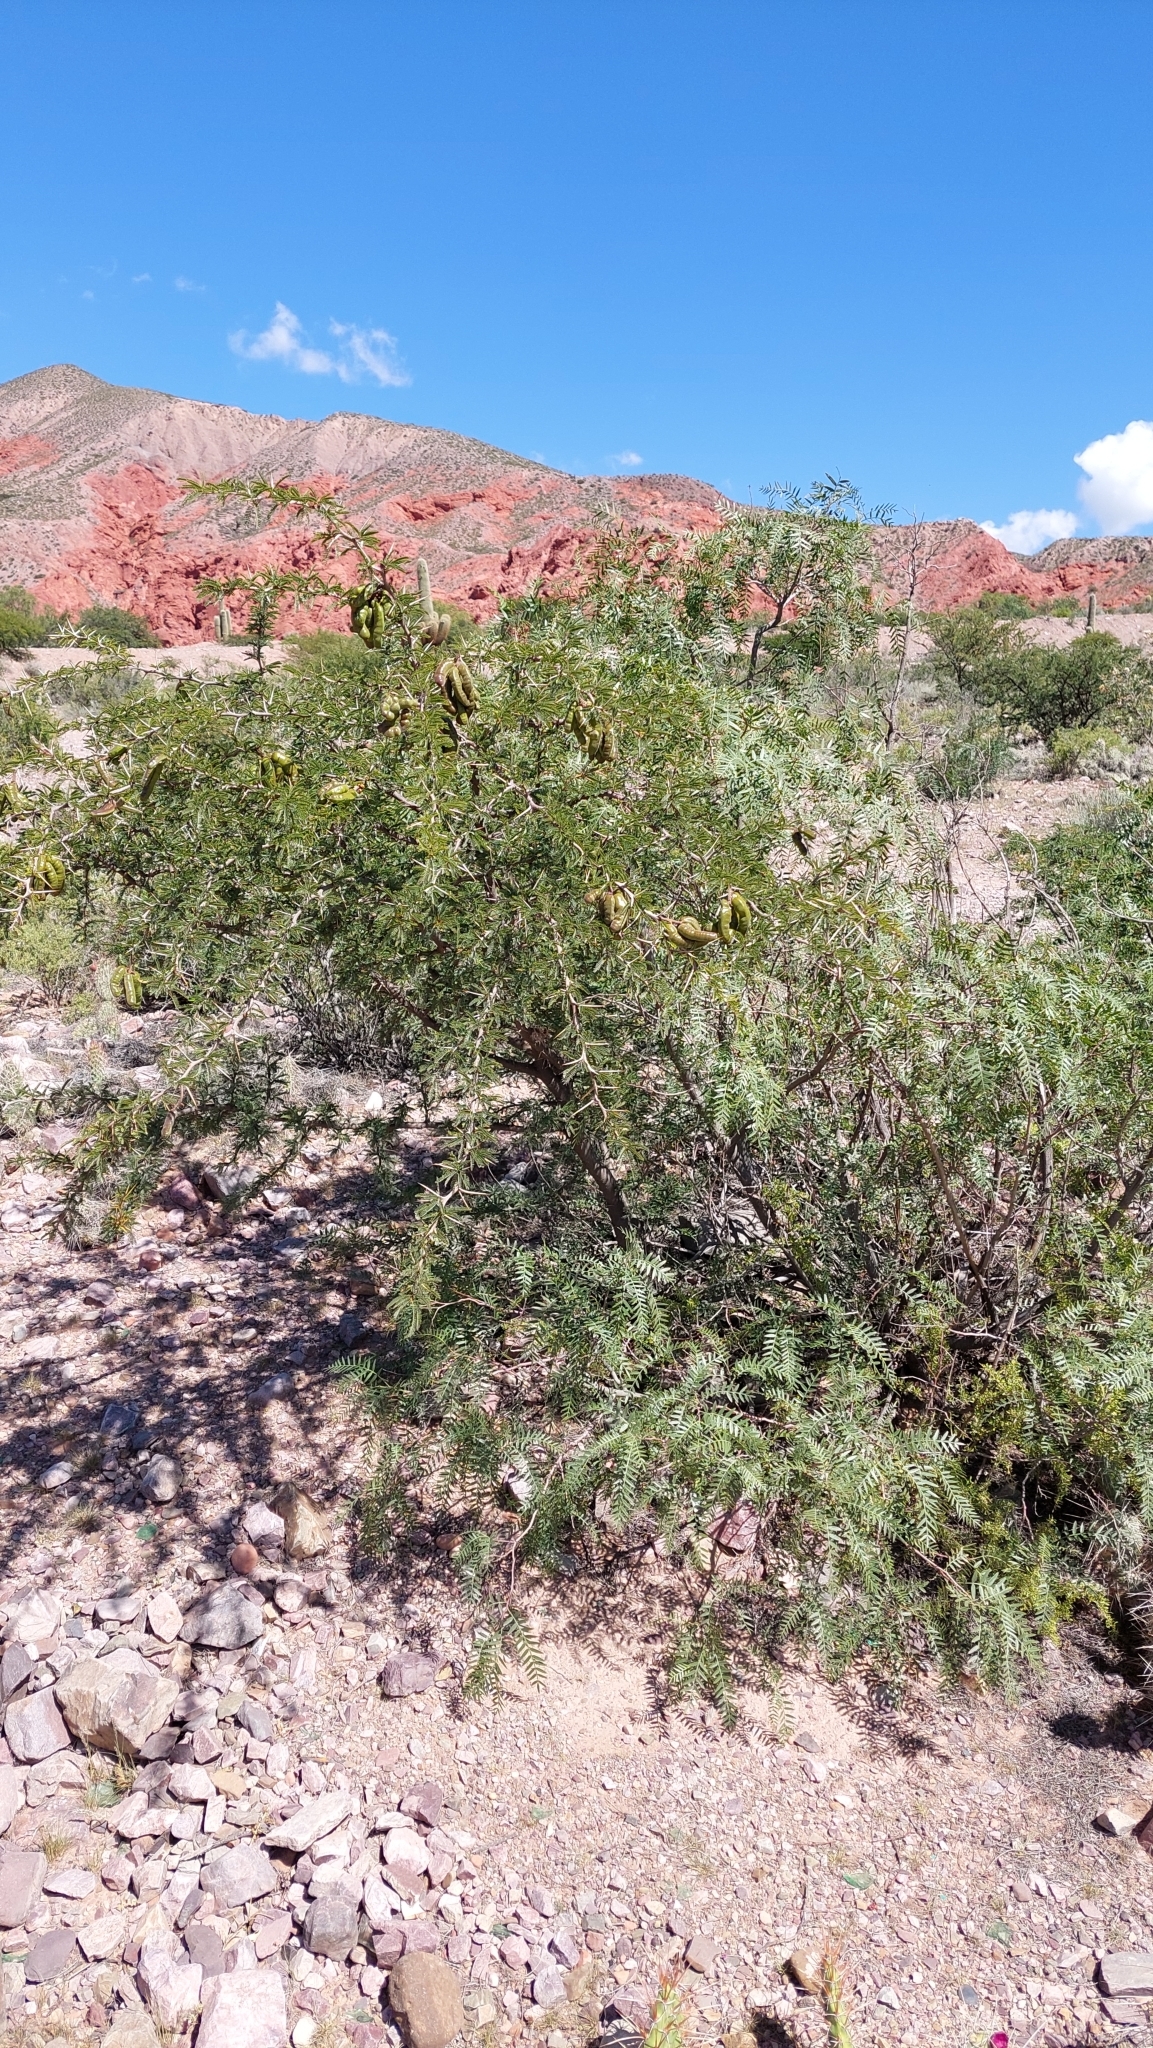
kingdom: Plantae
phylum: Tracheophyta
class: Magnoliopsida
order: Fabales
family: Fabaceae
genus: Prosopis
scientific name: Prosopis ferox
